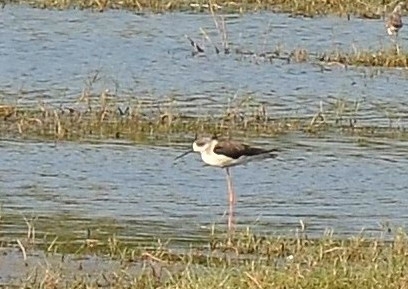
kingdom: Animalia
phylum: Chordata
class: Aves
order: Charadriiformes
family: Recurvirostridae
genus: Himantopus
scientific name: Himantopus himantopus
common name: Black-winged stilt
